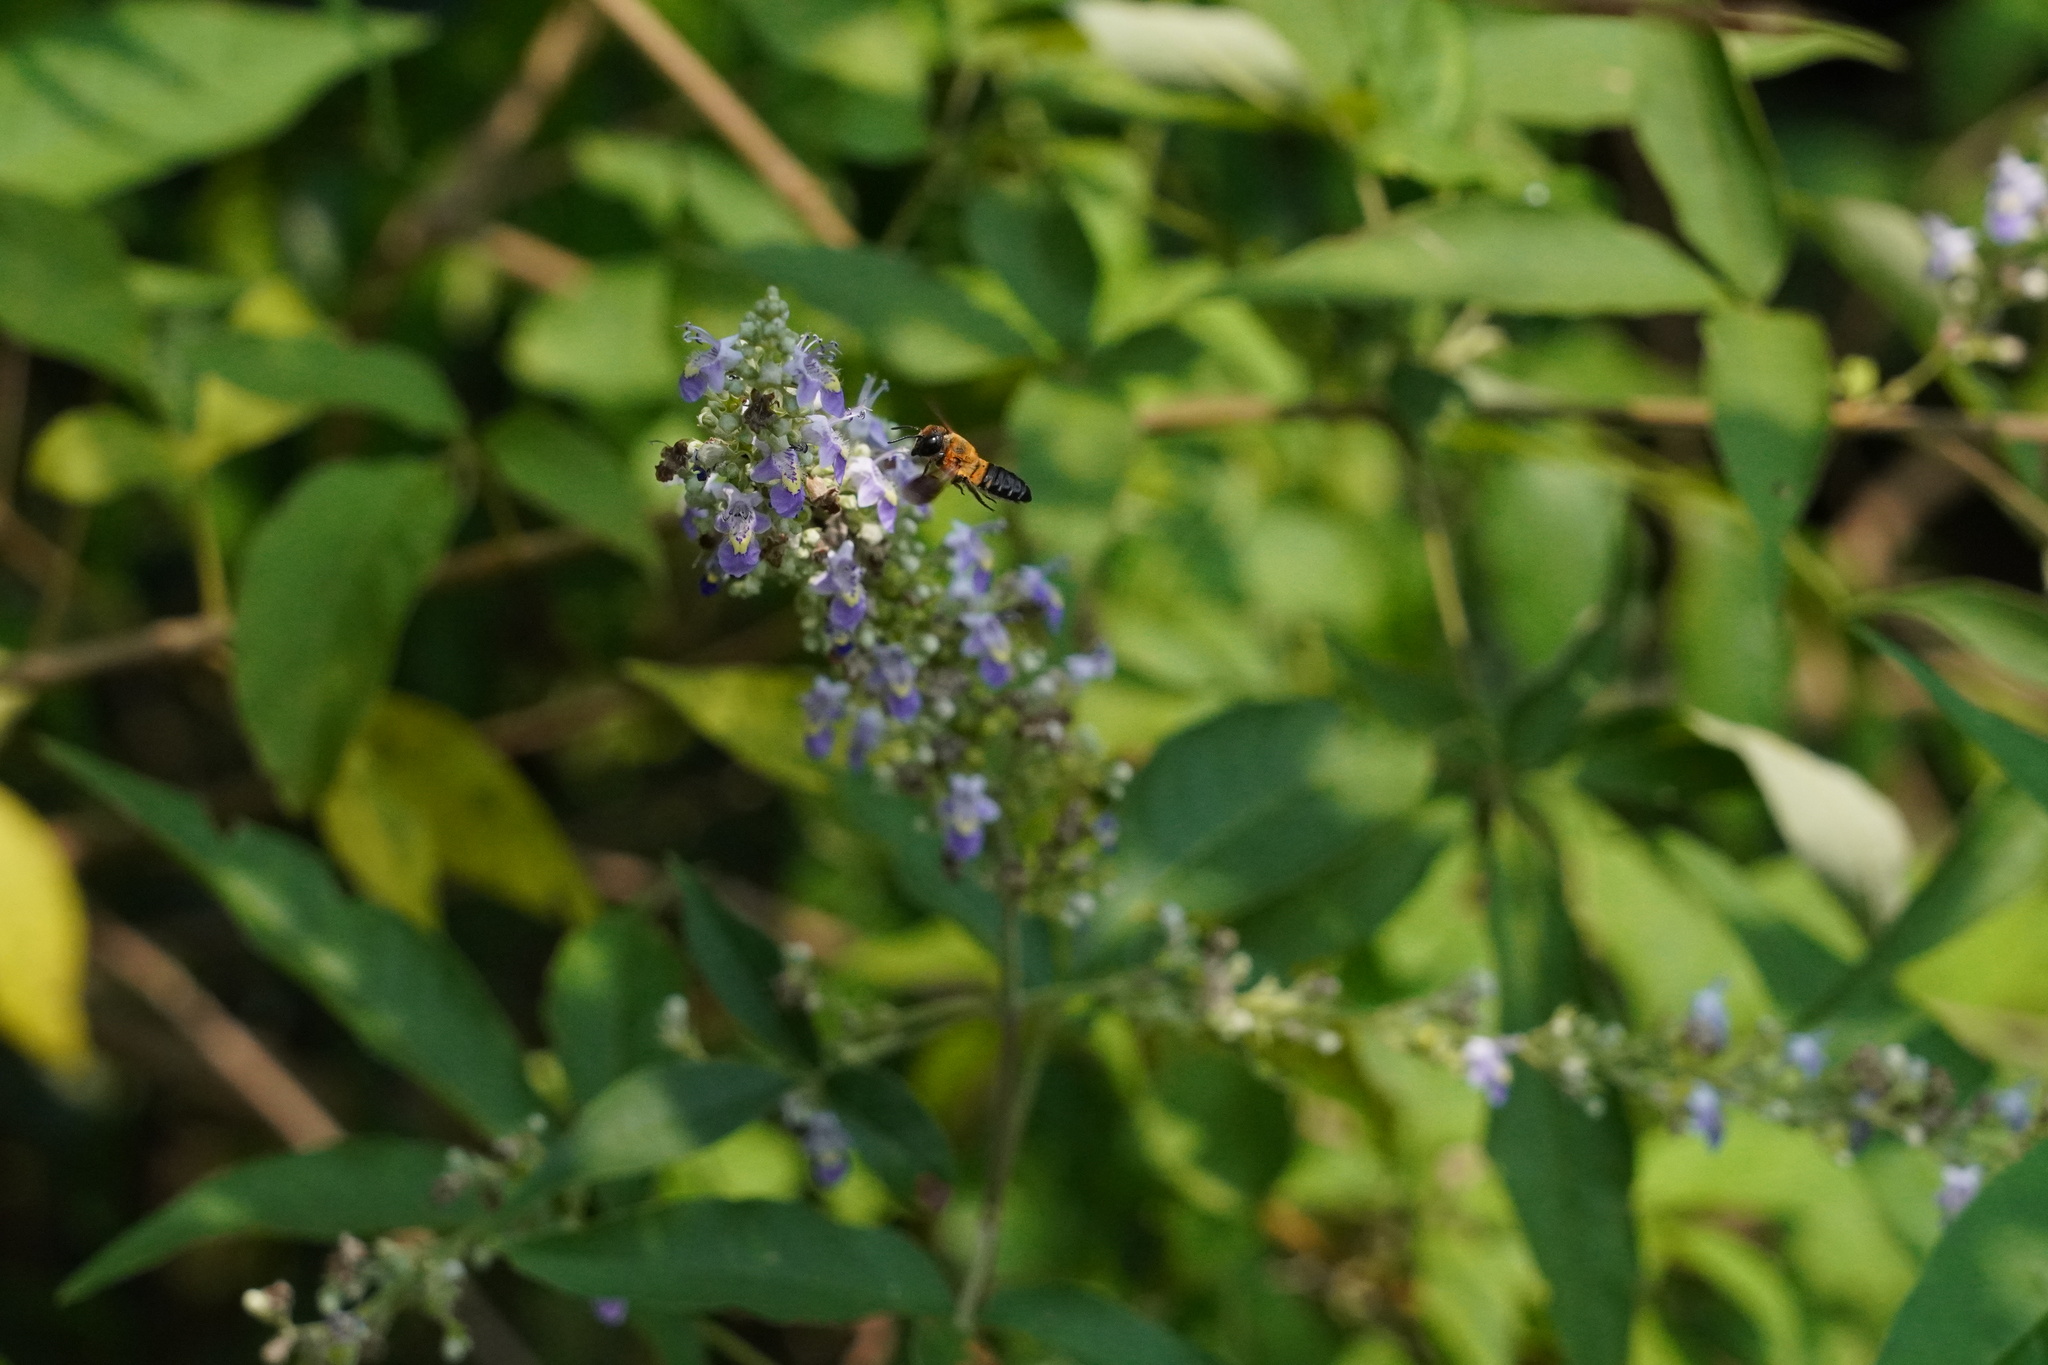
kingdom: Animalia
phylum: Arthropoda
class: Insecta
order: Hymenoptera
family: Megachilidae
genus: Megachile
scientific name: Megachile umbripennis
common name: Shadow-winged resin bee
